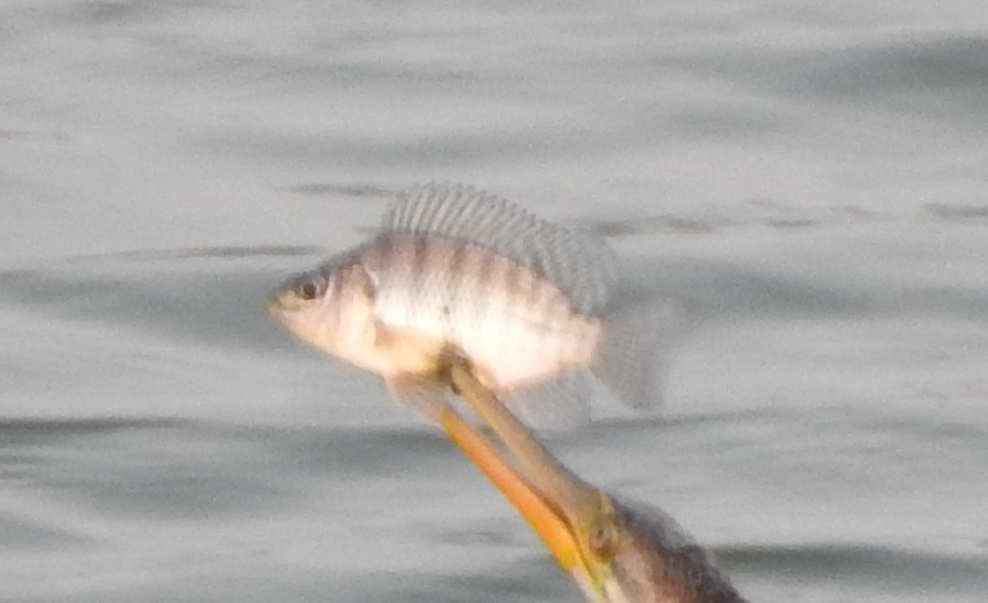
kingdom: Animalia
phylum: Chordata
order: Perciformes
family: Cichlidae
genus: Oreochromis
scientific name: Oreochromis niloticus
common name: Nile tilapia
